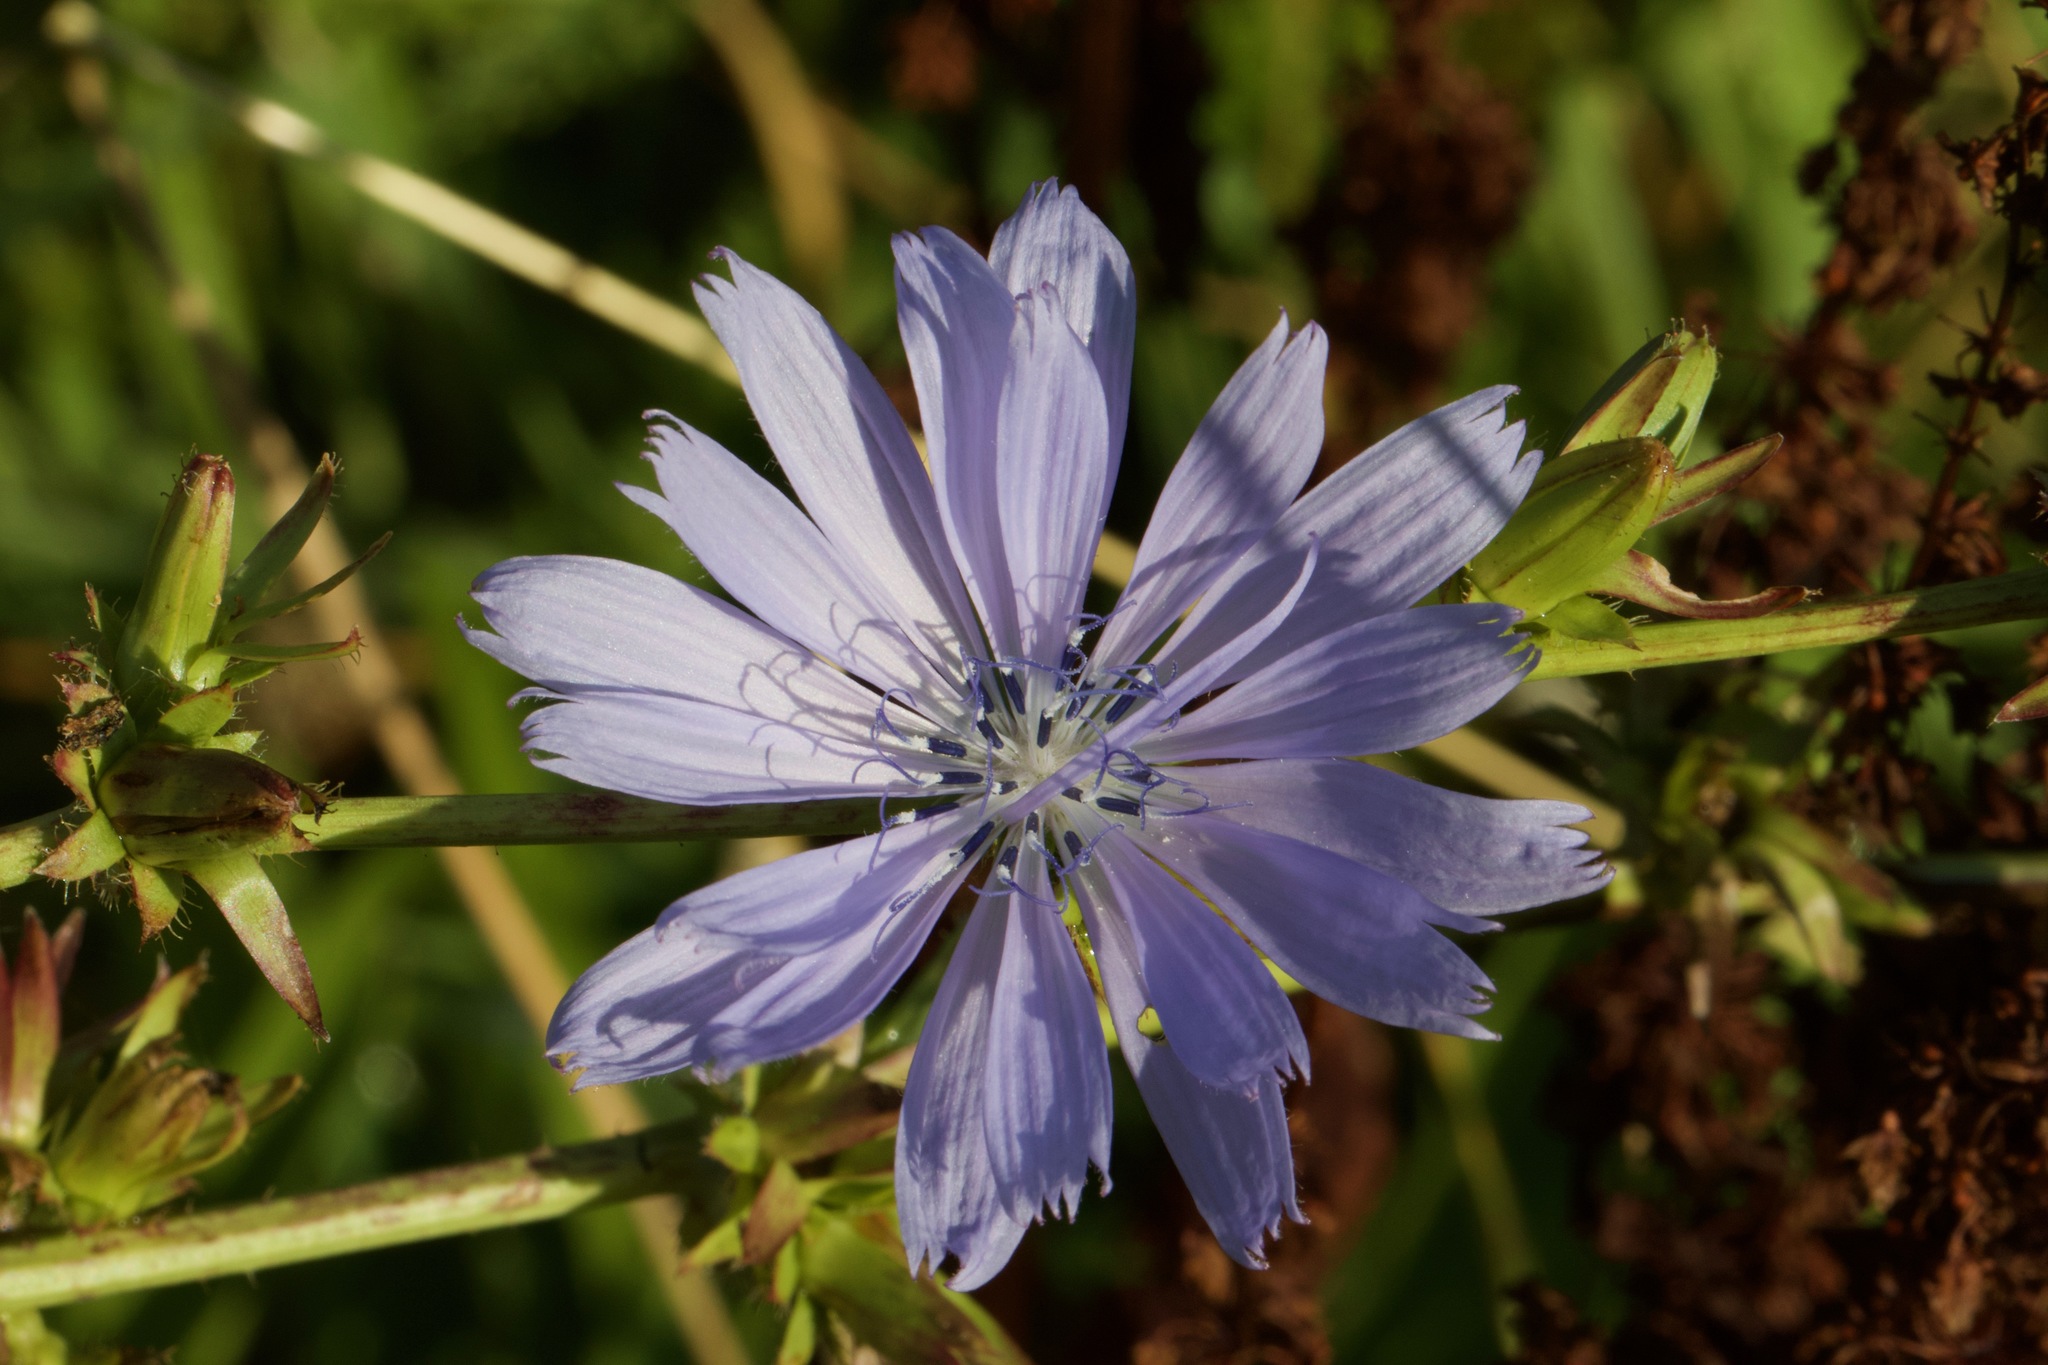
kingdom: Plantae
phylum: Tracheophyta
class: Magnoliopsida
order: Asterales
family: Asteraceae
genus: Cichorium
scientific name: Cichorium intybus
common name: Chicory
